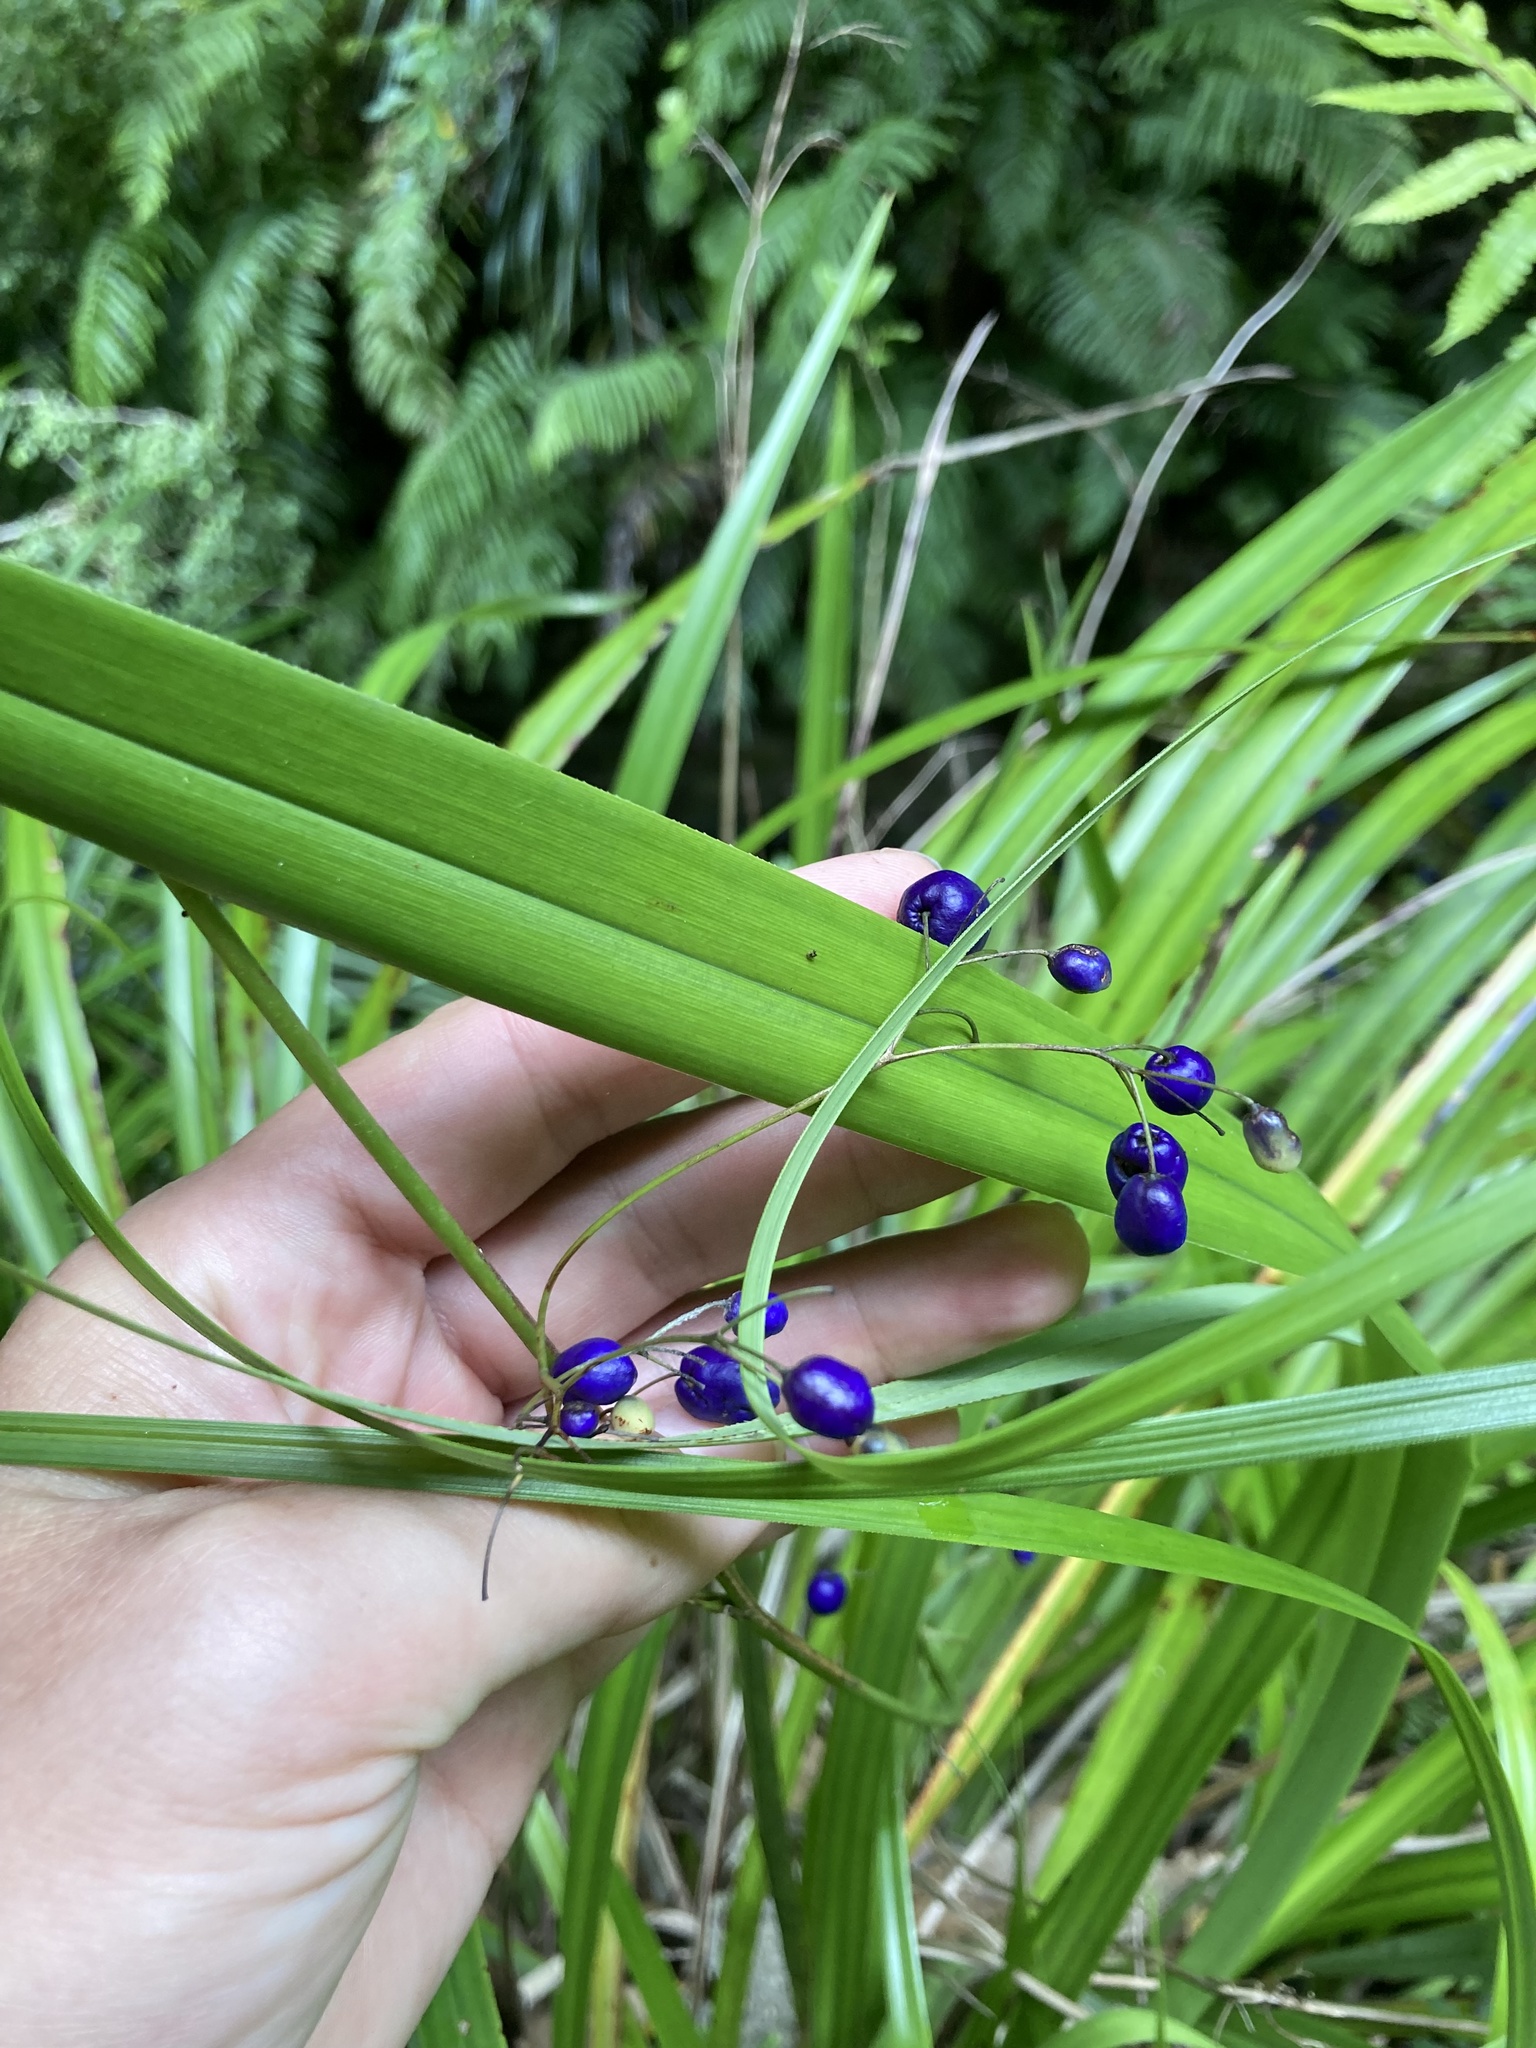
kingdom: Plantae
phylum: Tracheophyta
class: Liliopsida
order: Asparagales
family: Asphodelaceae
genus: Dianella
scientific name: Dianella nigra
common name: New zealand-blueberry
